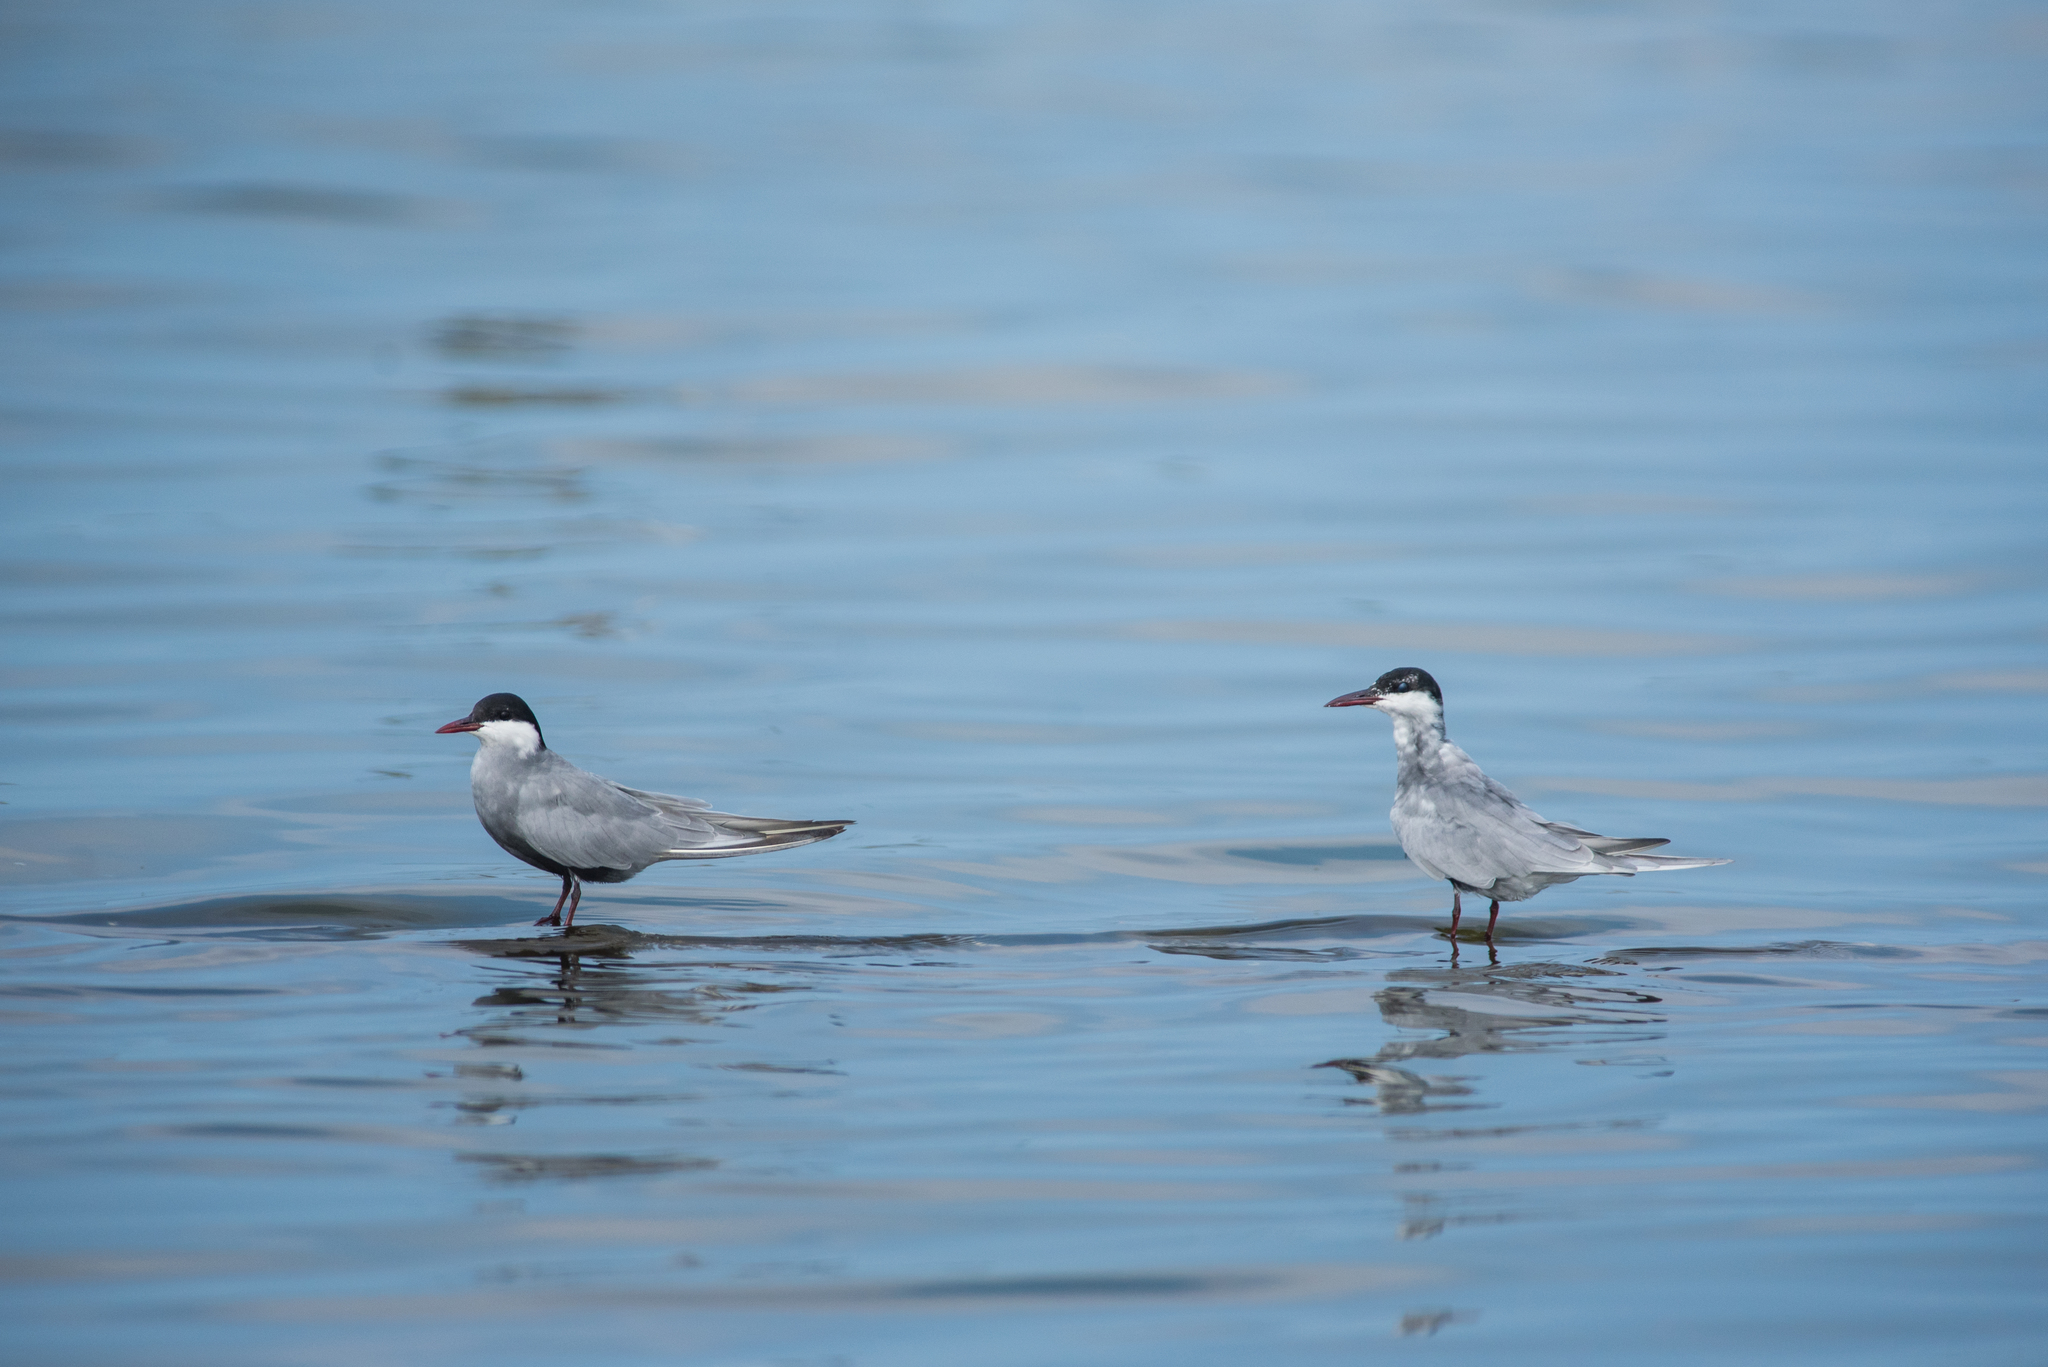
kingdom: Animalia
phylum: Chordata
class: Aves
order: Charadriiformes
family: Laridae
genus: Chlidonias
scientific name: Chlidonias hybrida
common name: Whiskered tern
